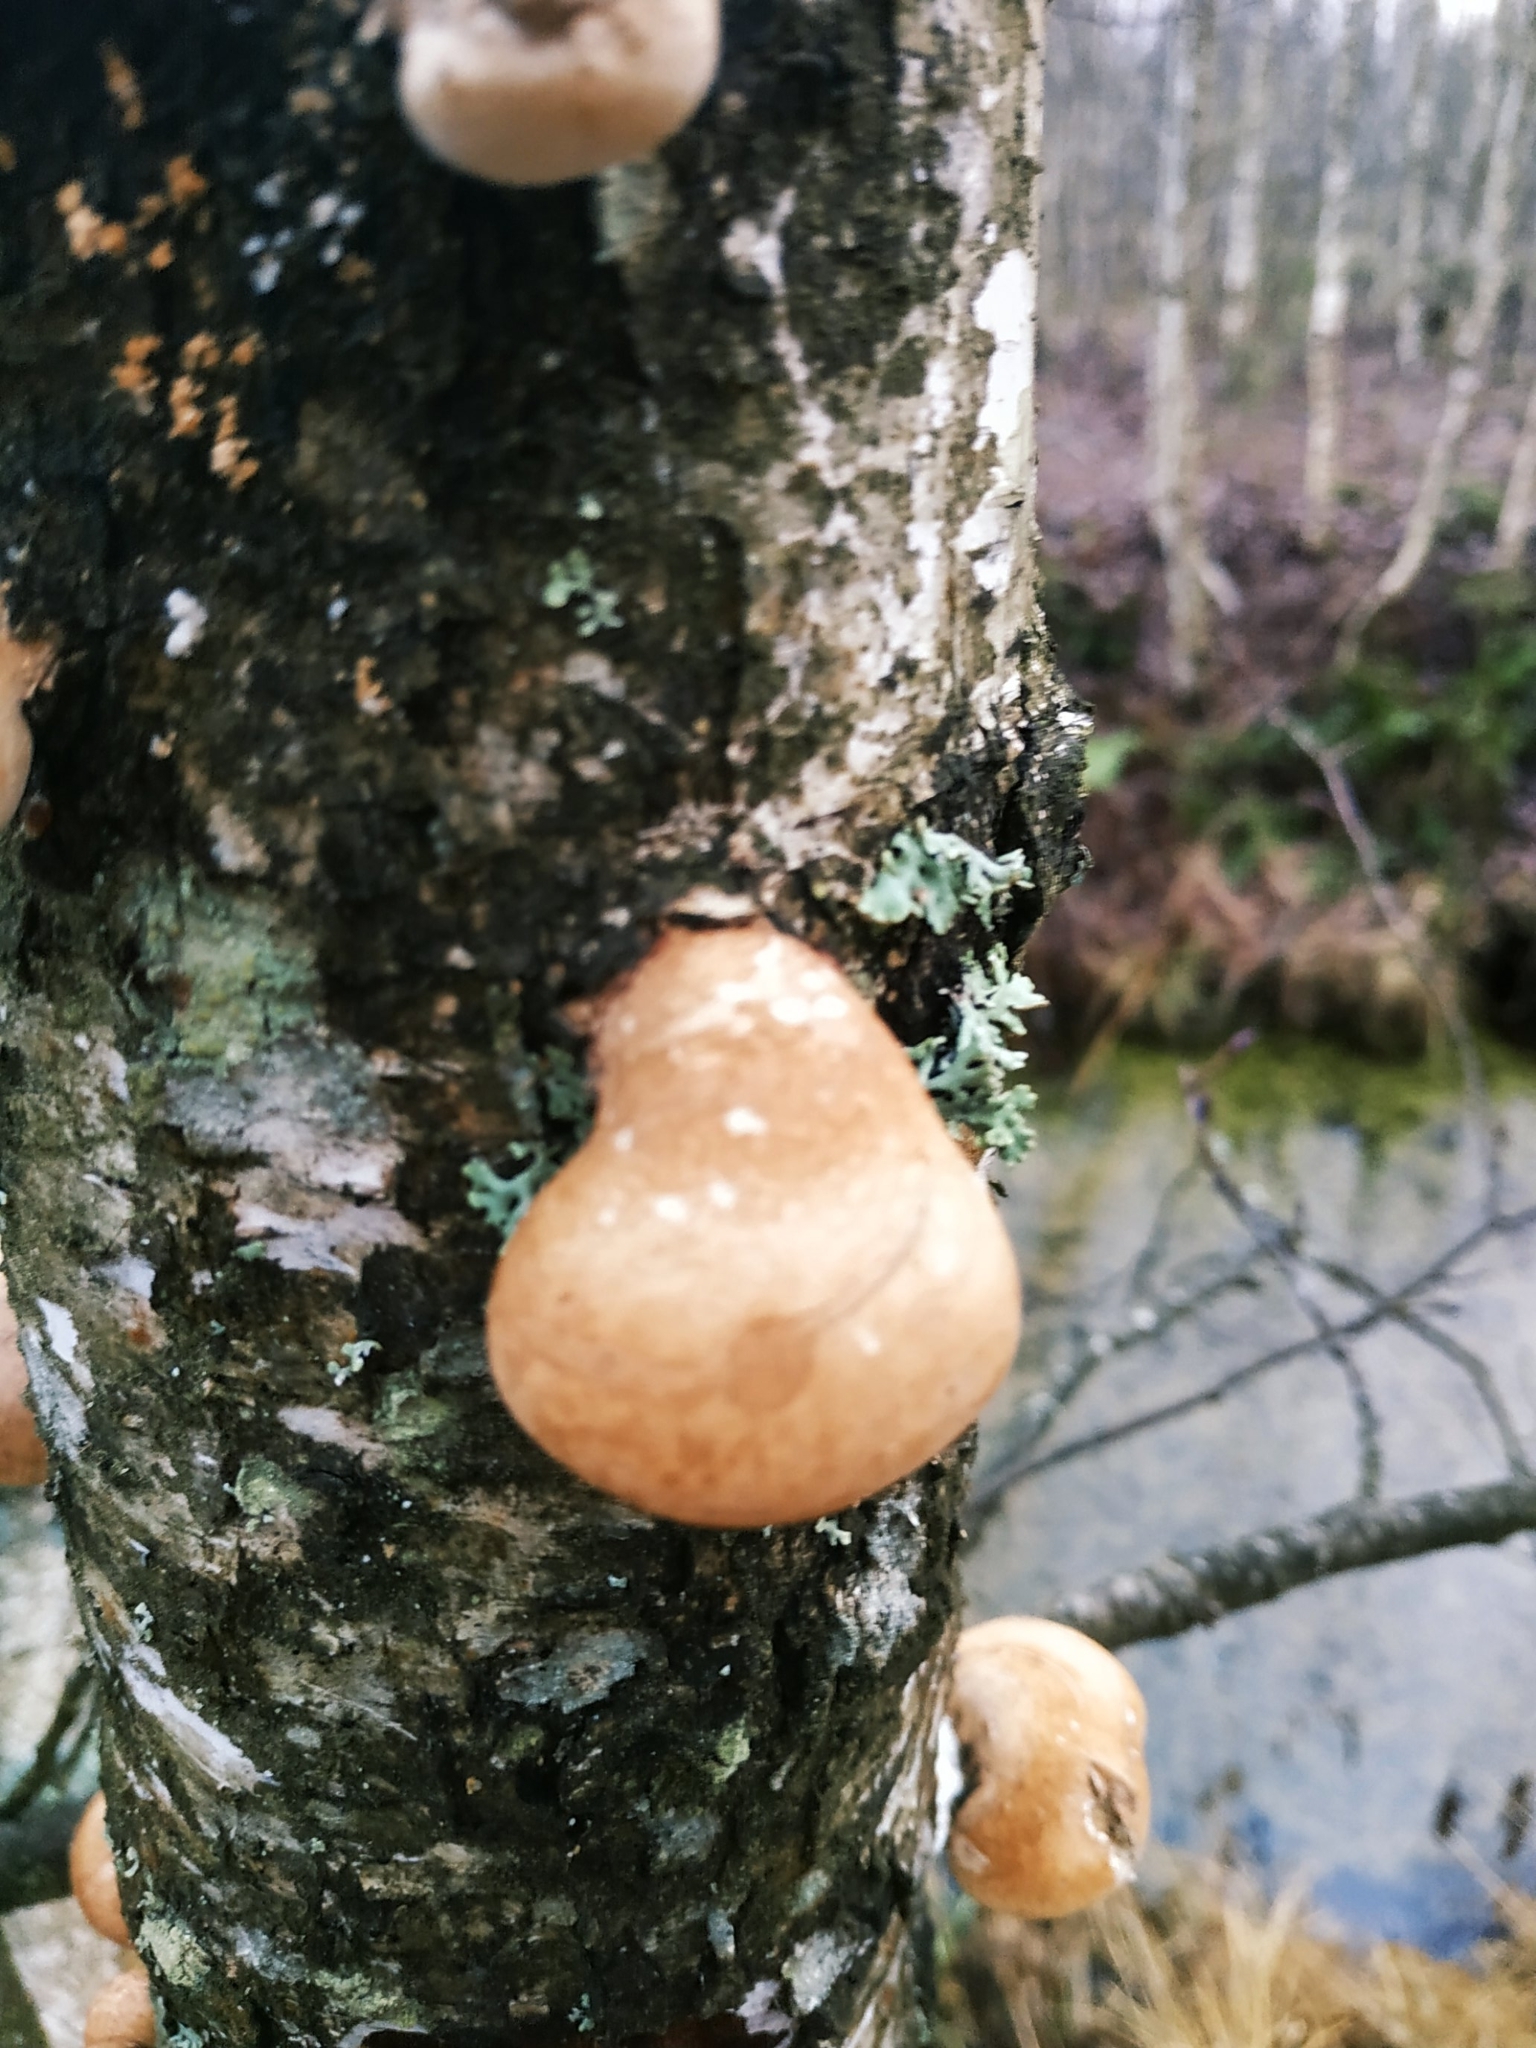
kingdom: Fungi
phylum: Basidiomycota
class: Agaricomycetes
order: Polyporales
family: Fomitopsidaceae
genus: Fomitopsis
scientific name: Fomitopsis betulina
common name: Birch polypore
